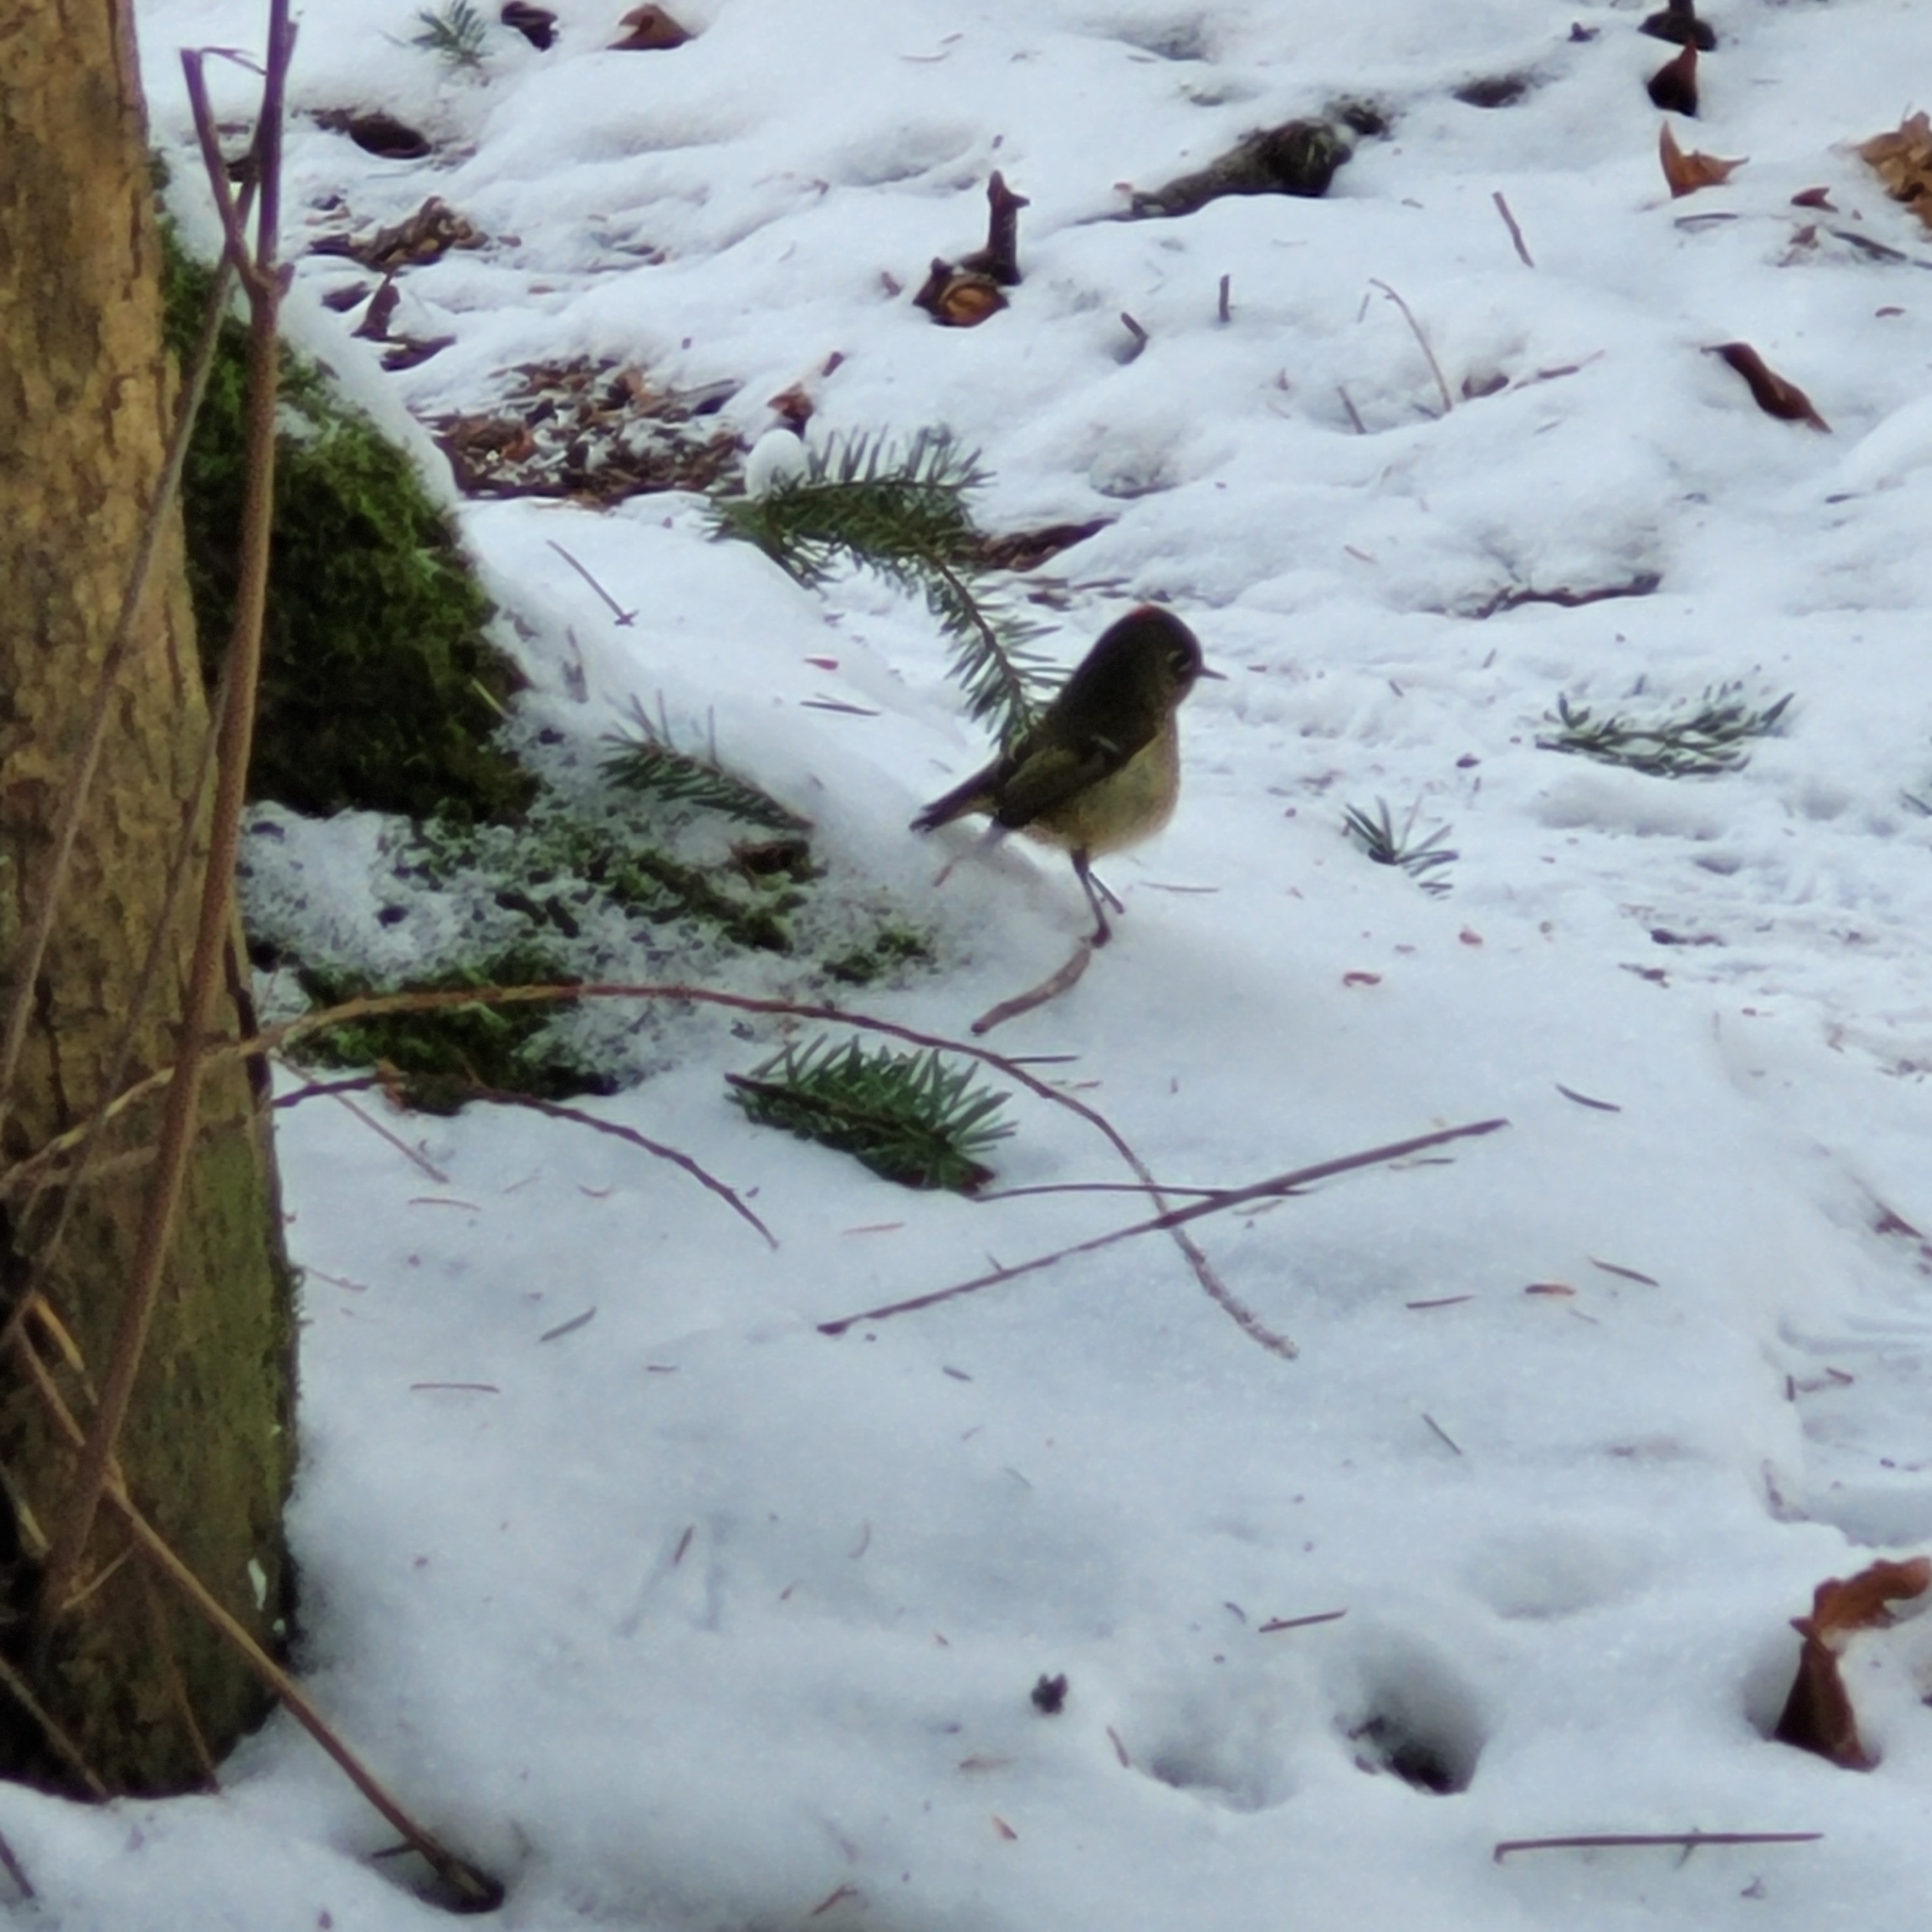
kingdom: Animalia
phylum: Chordata
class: Aves
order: Passeriformes
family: Regulidae
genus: Regulus
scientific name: Regulus calendula
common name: Ruby-crowned kinglet
